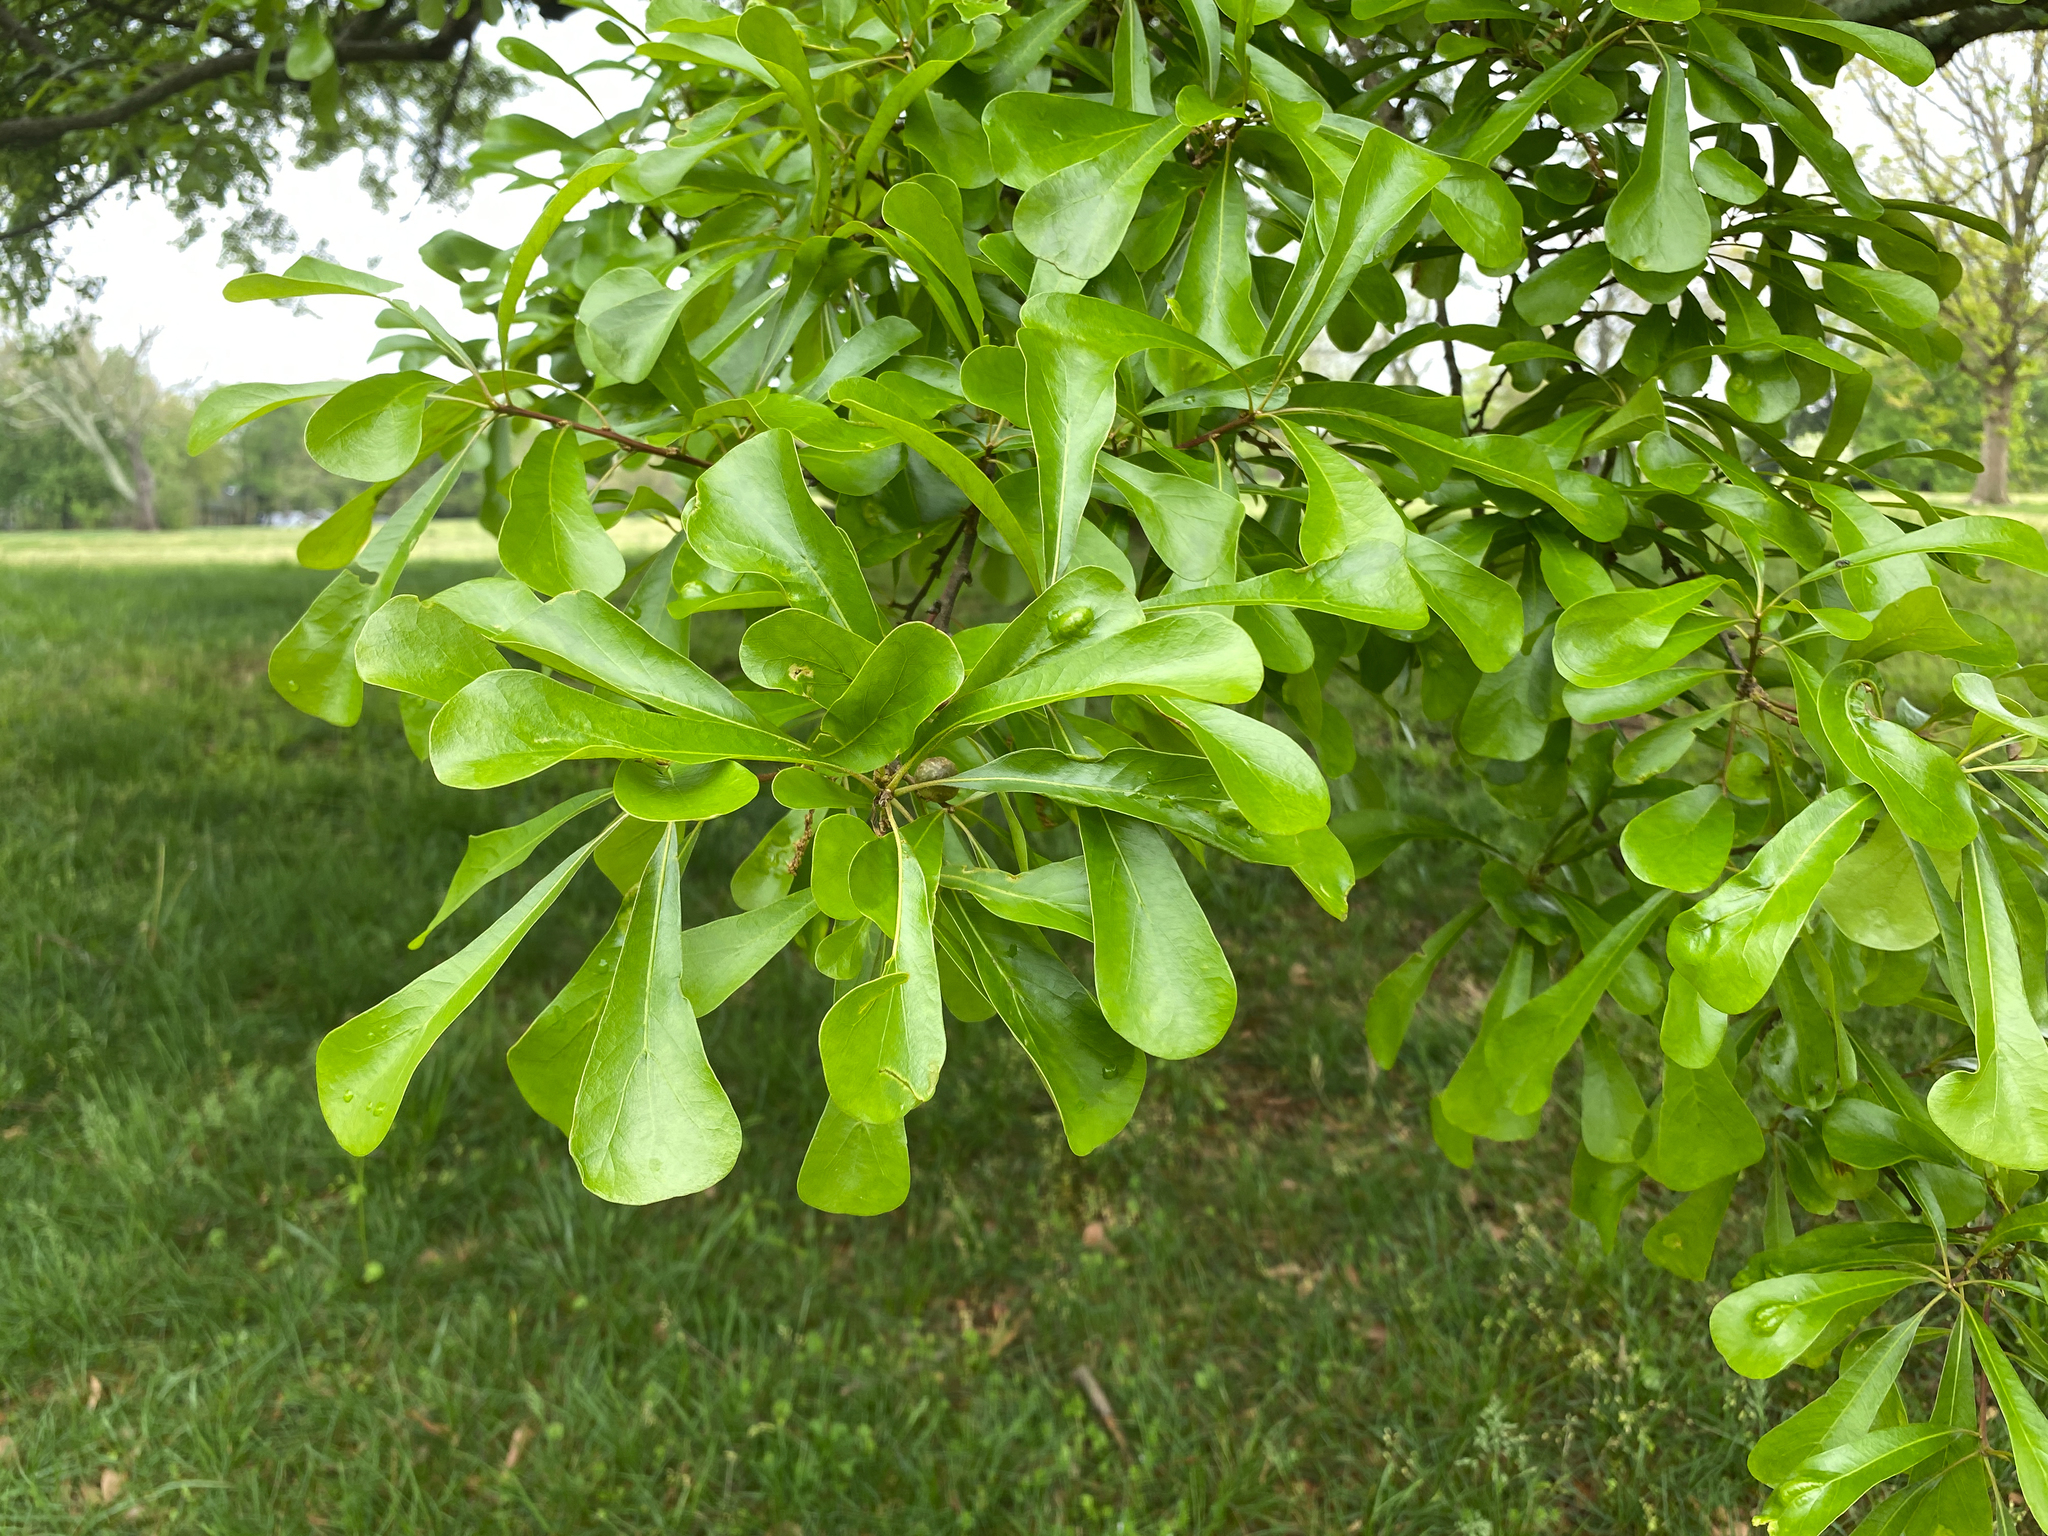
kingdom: Plantae
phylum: Tracheophyta
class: Magnoliopsida
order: Fagales
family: Fagaceae
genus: Quercus
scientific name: Quercus nigra
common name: Water oak
